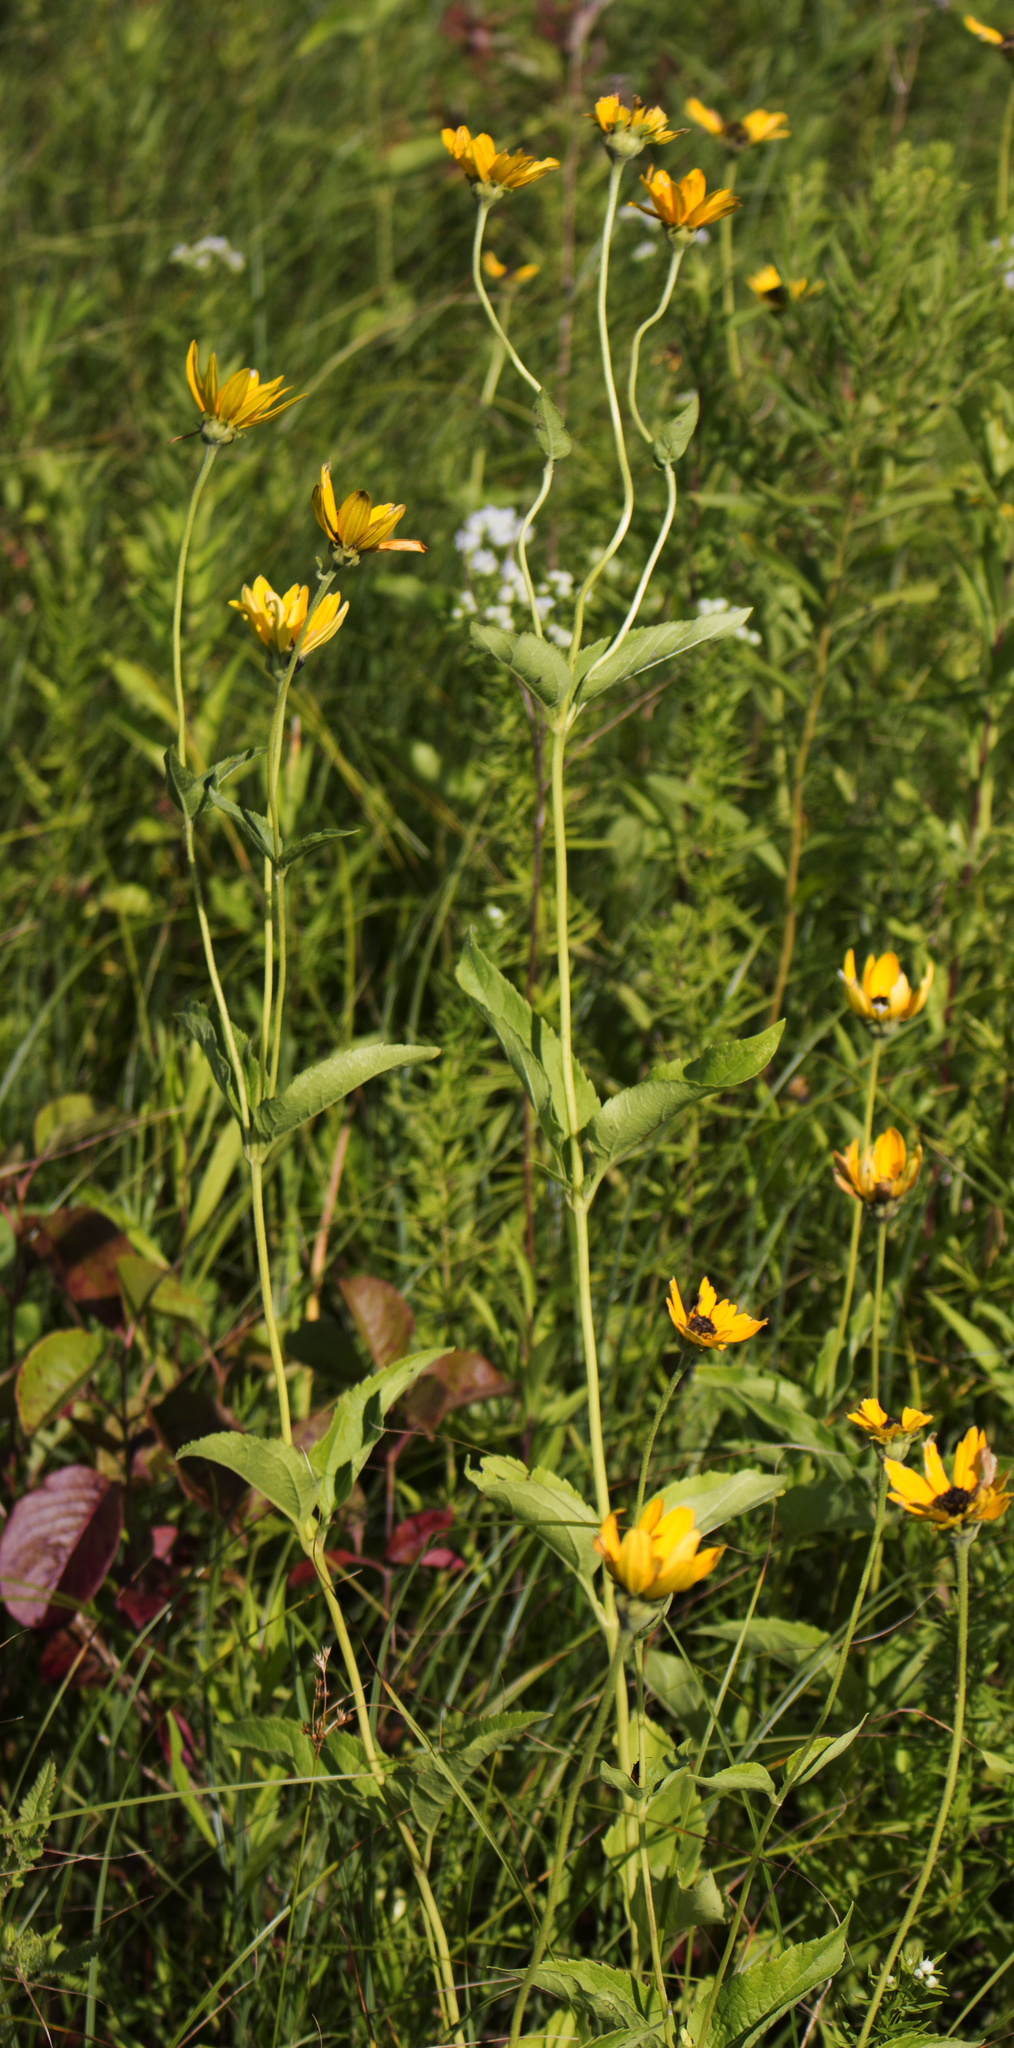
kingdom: Plantae
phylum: Tracheophyta
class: Magnoliopsida
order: Asterales
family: Asteraceae
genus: Heliopsis
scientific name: Heliopsis helianthoides
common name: False sunflower
